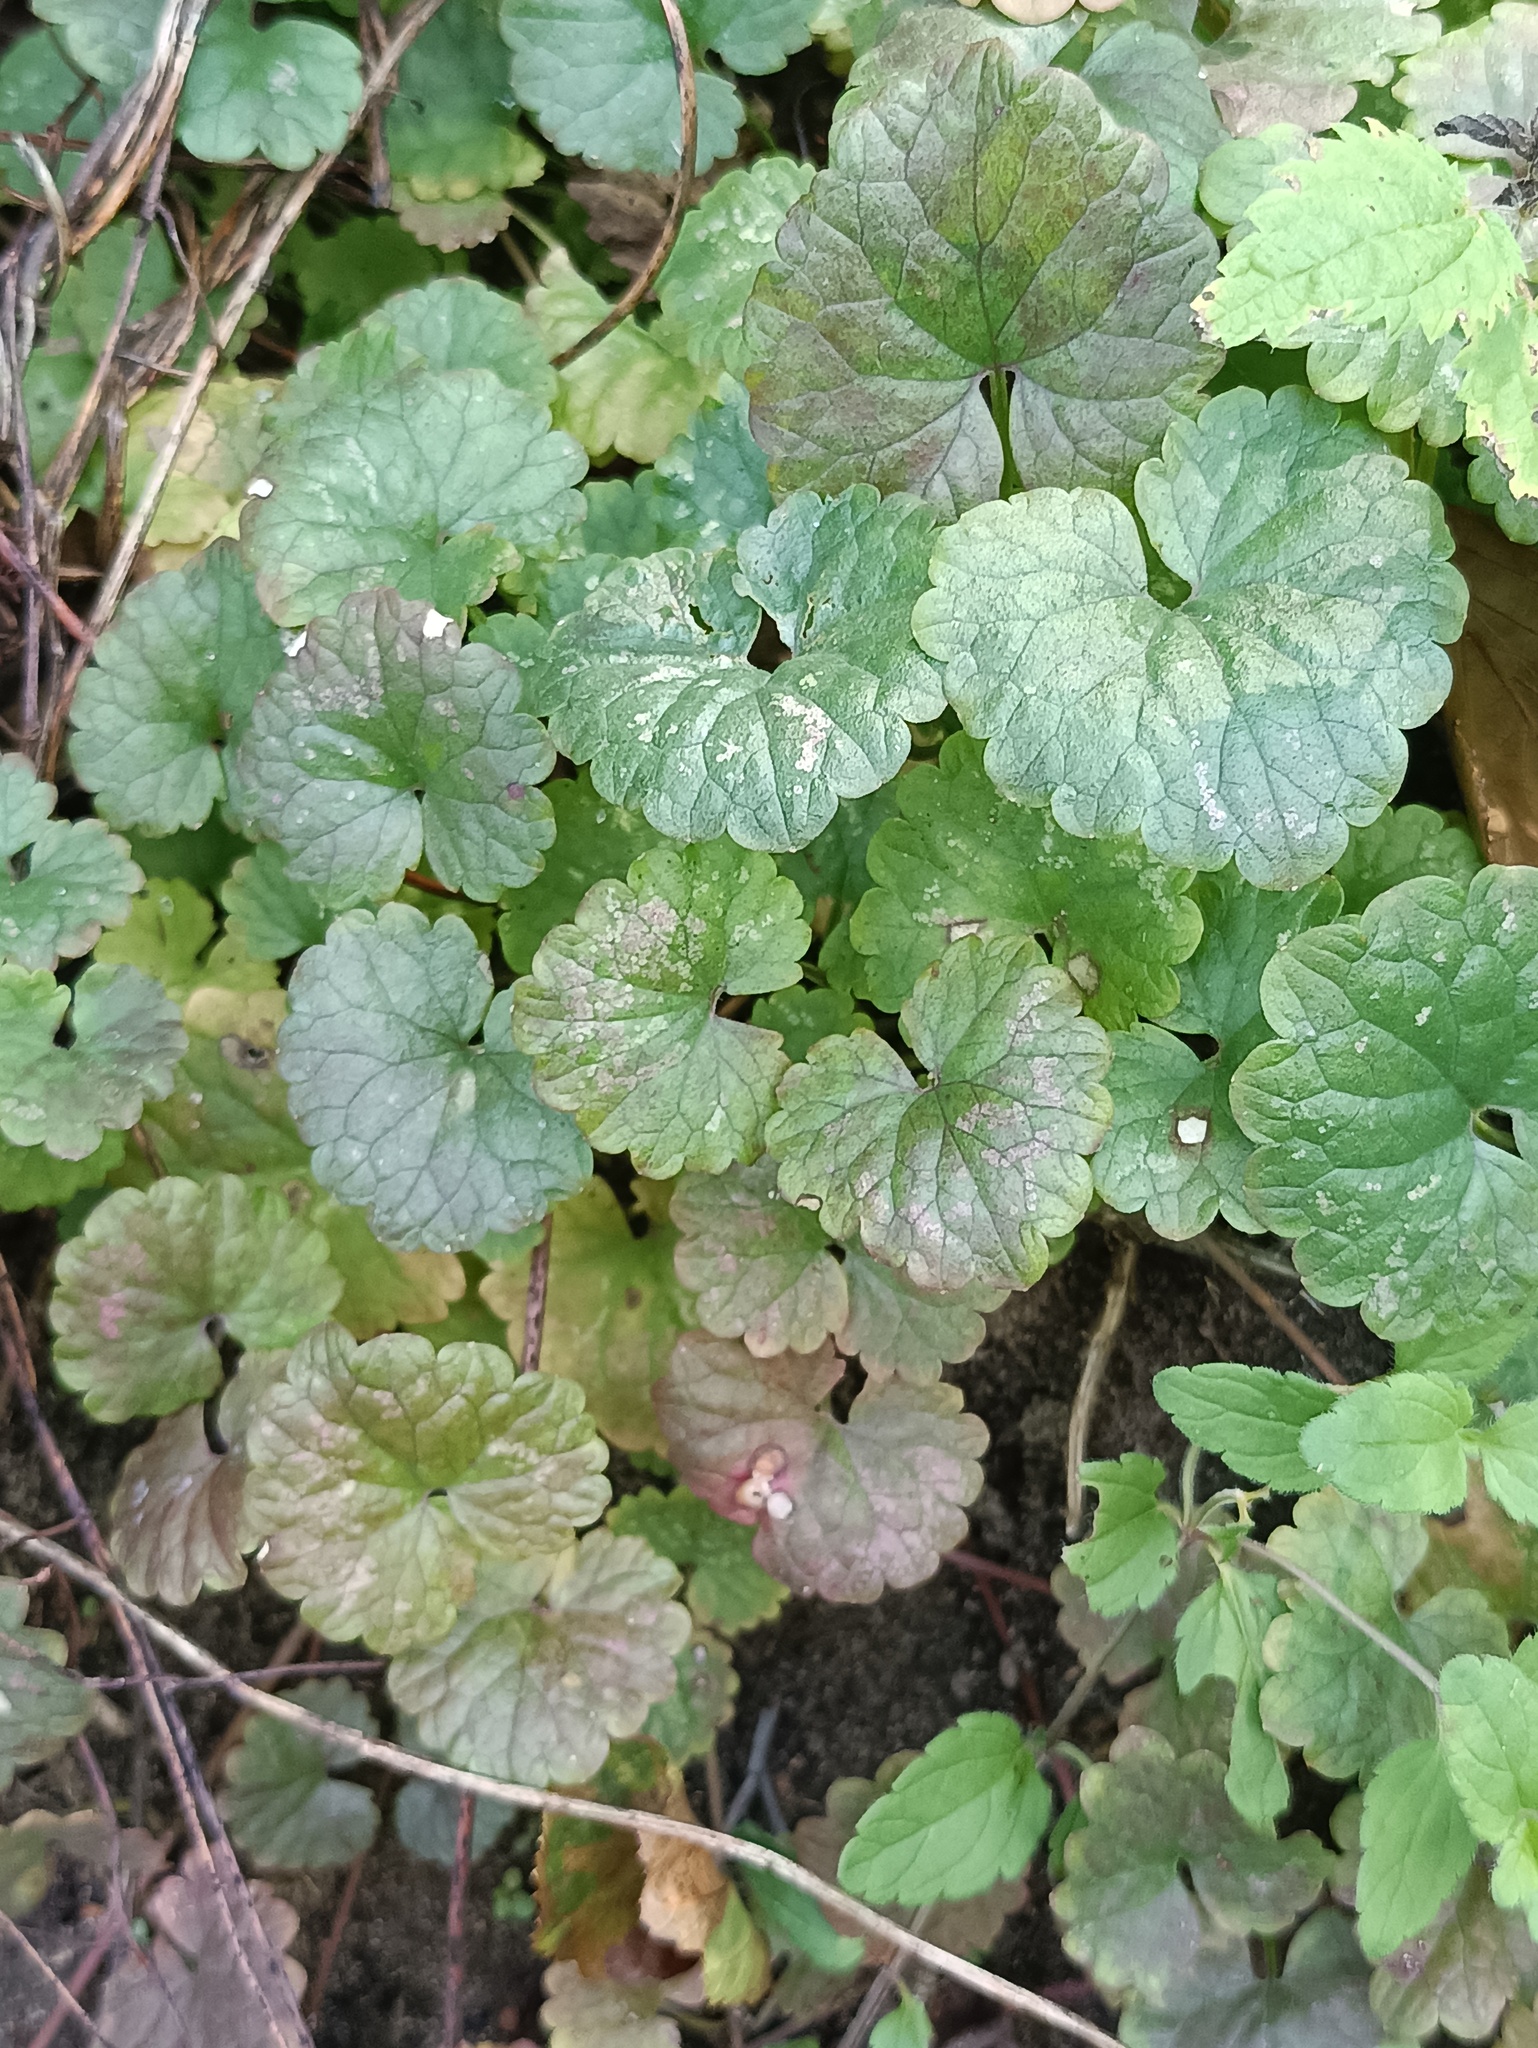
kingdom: Plantae
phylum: Tracheophyta
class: Magnoliopsida
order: Lamiales
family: Lamiaceae
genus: Glechoma
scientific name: Glechoma hederacea
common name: Ground ivy
